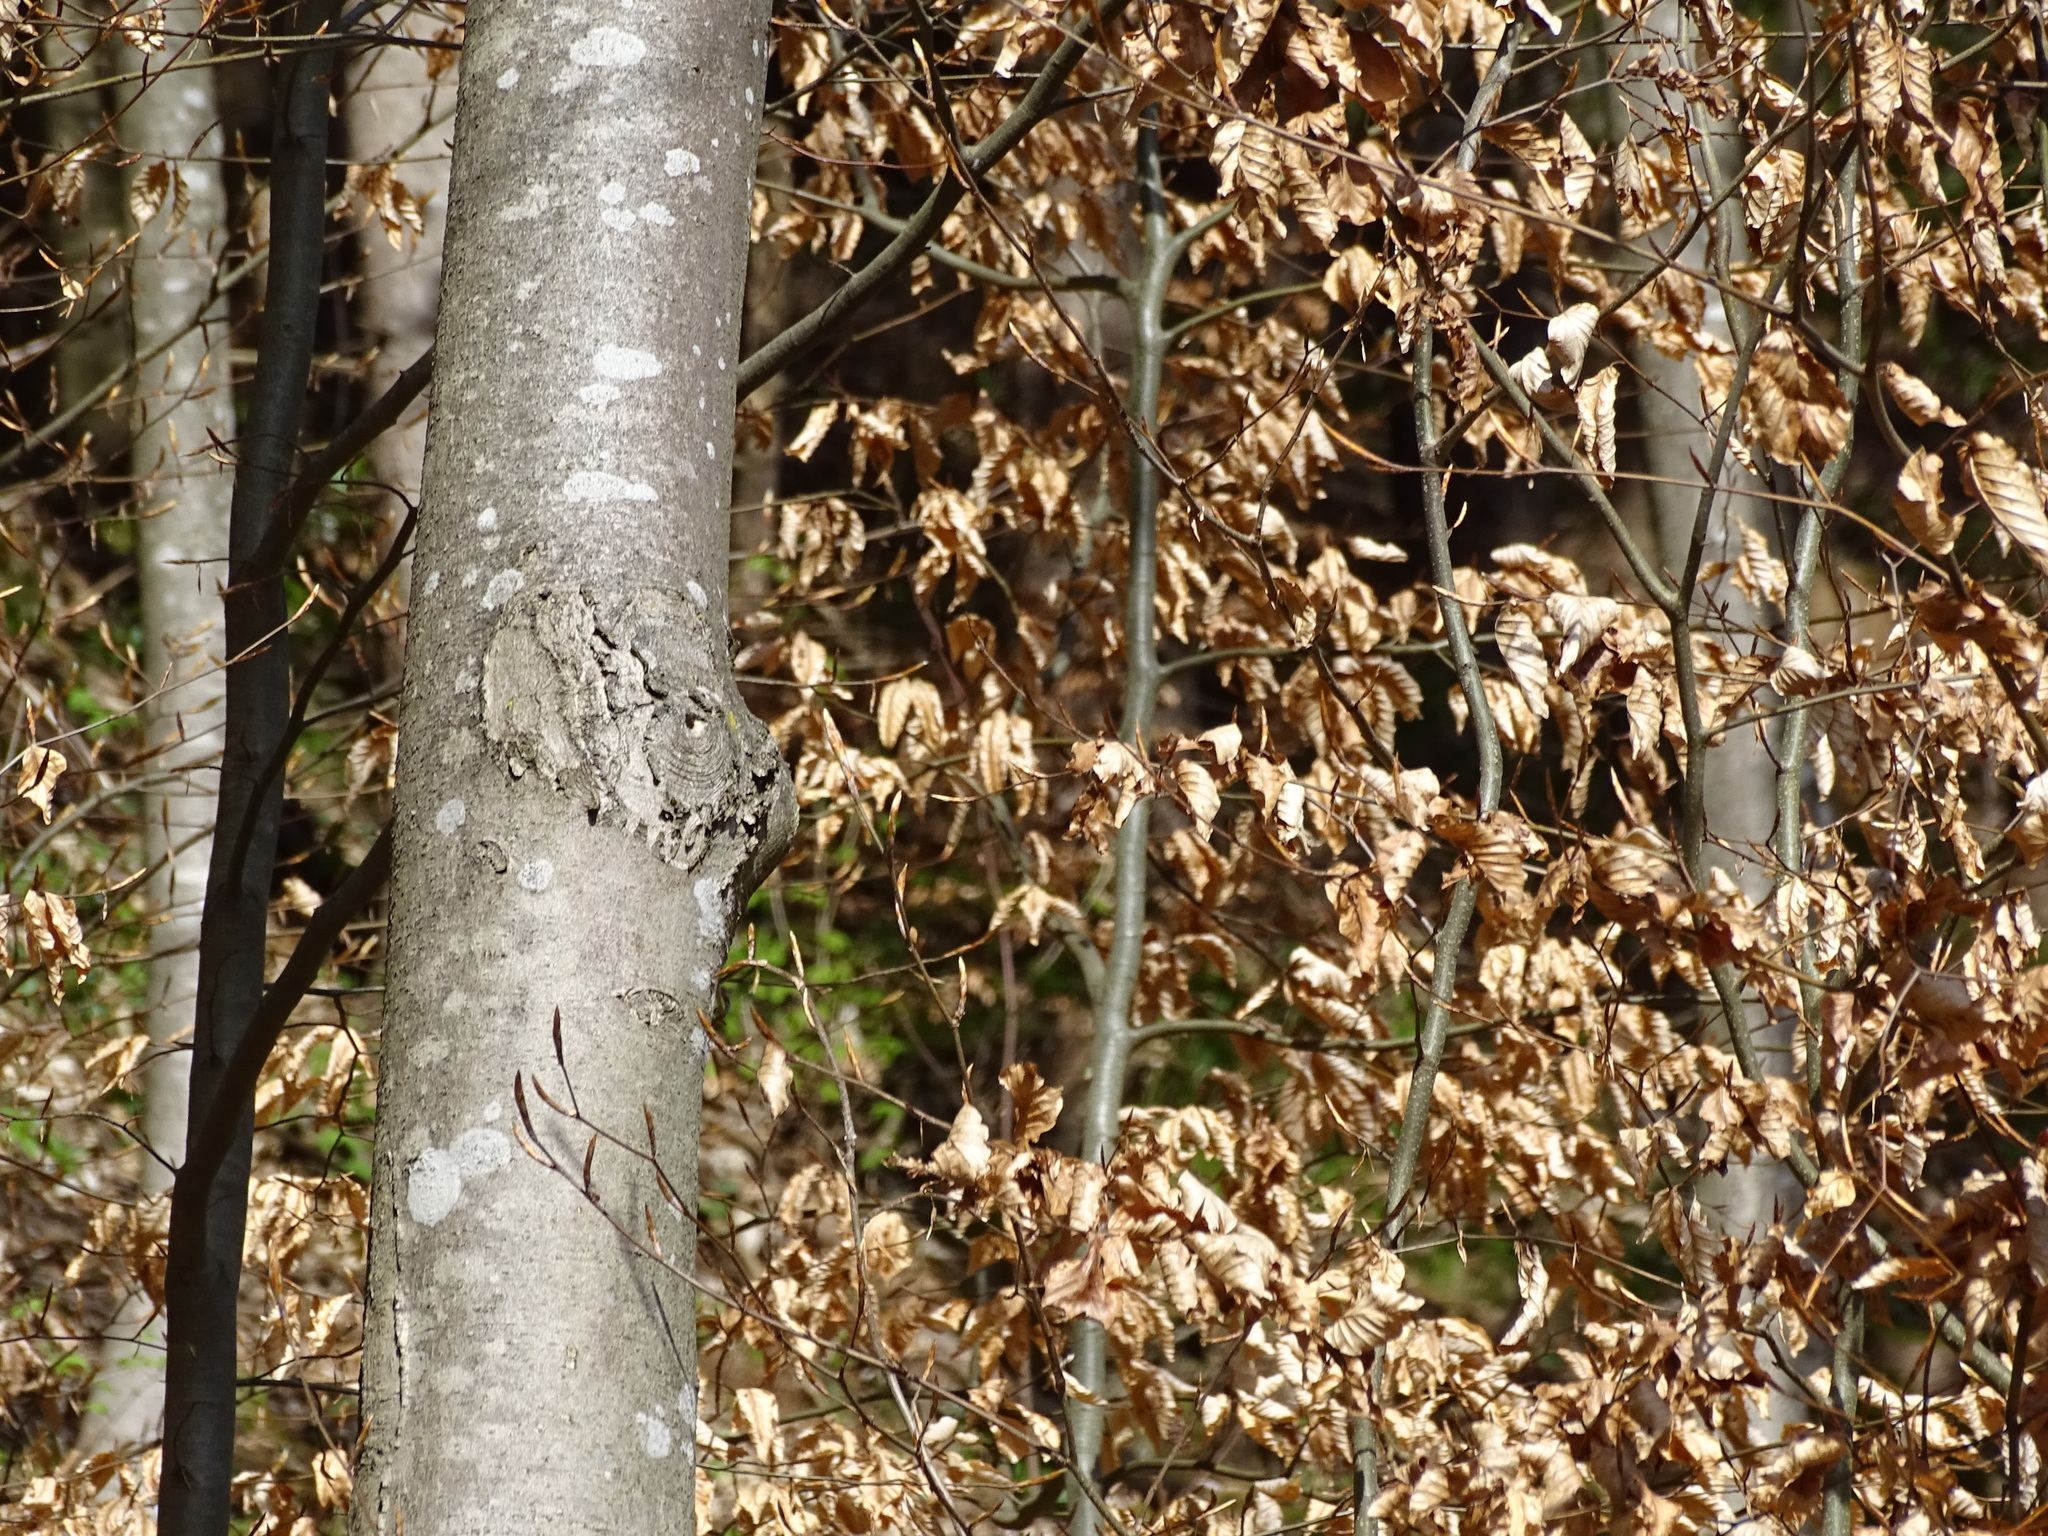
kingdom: Plantae
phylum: Tracheophyta
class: Magnoliopsida
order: Fagales
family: Fagaceae
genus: Fagus
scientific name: Fagus sylvatica
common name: Beech
